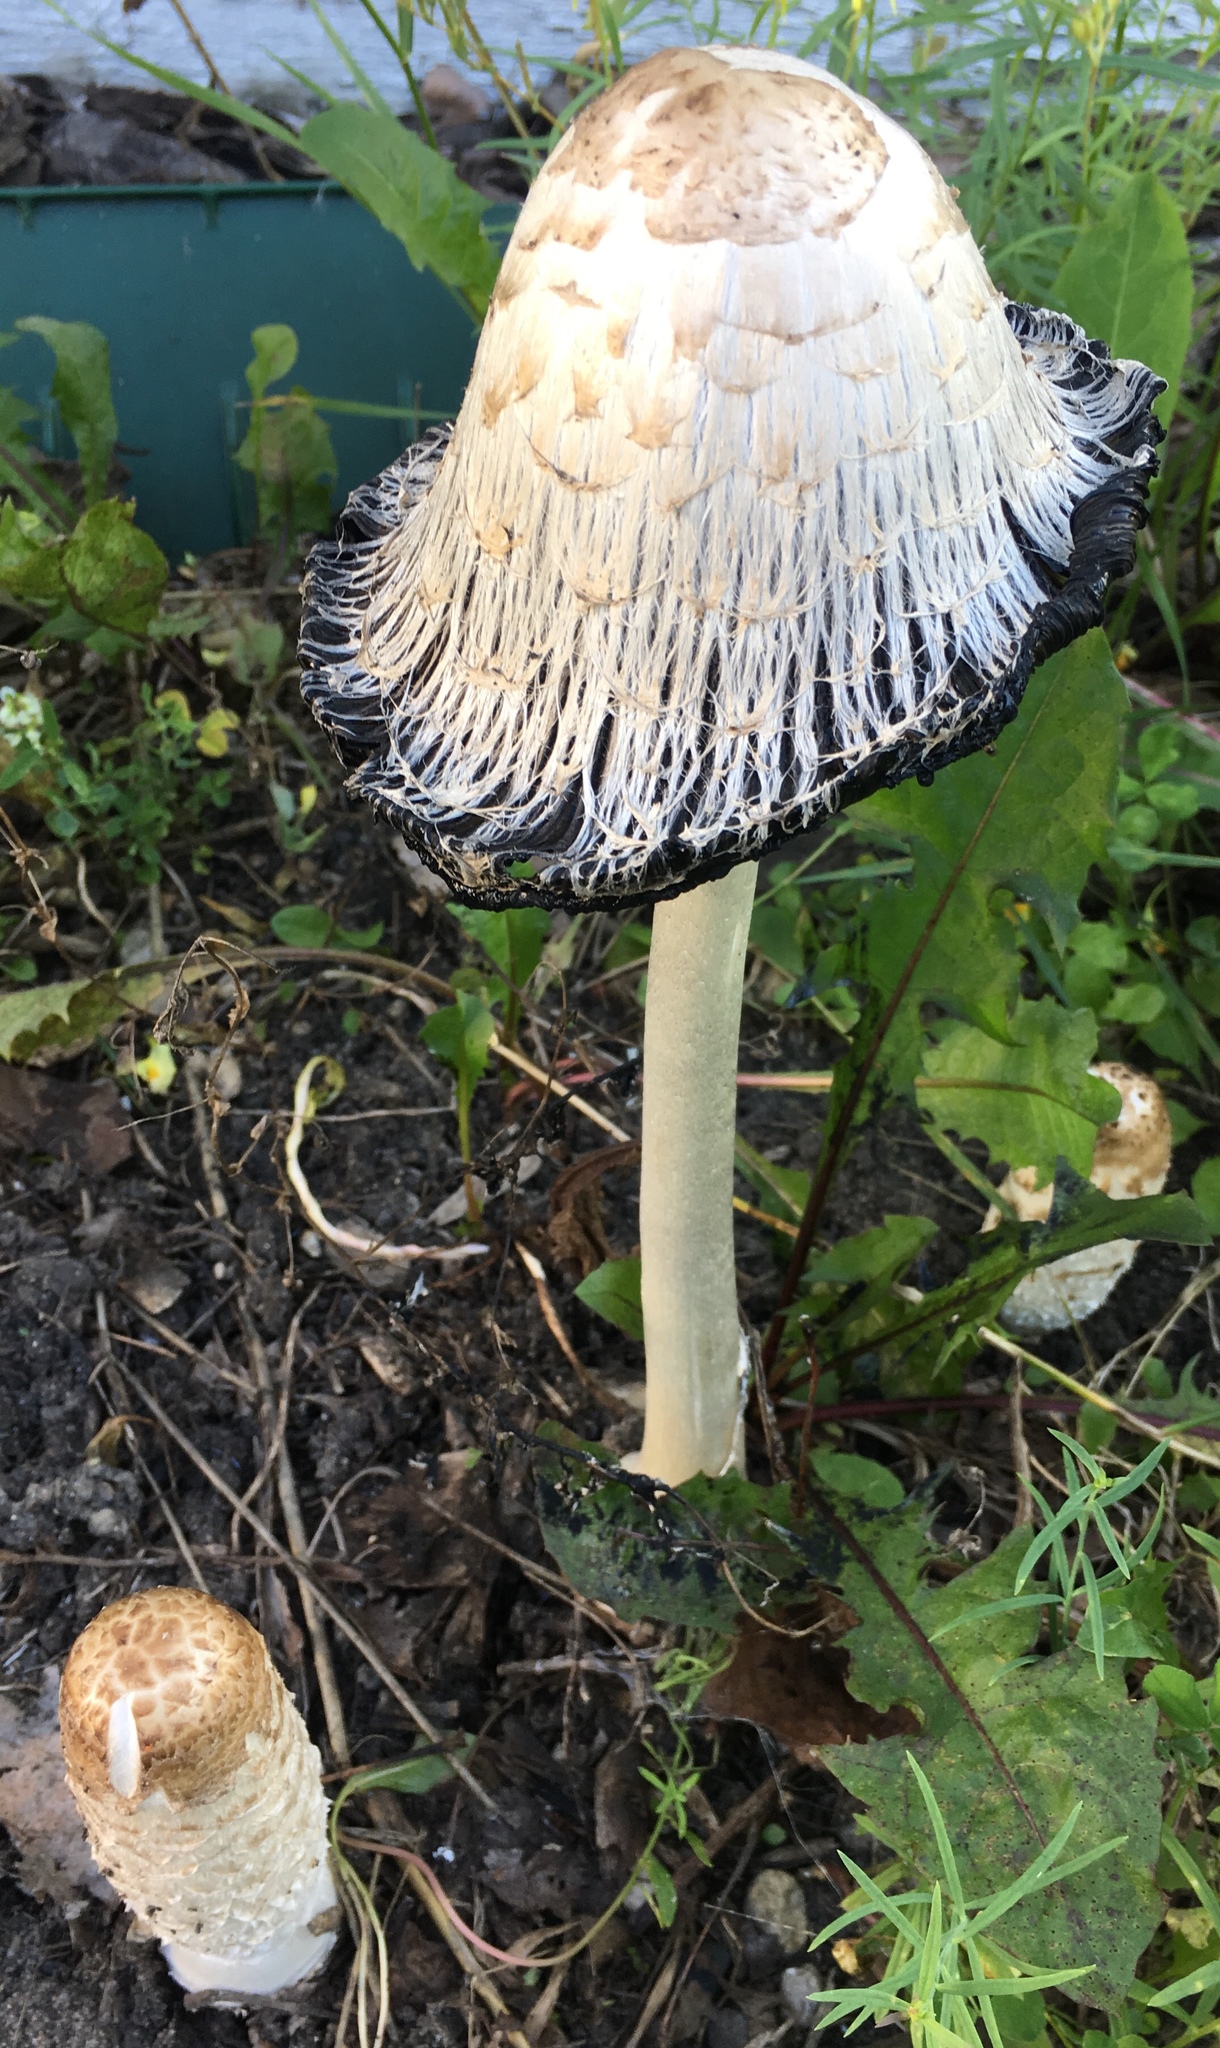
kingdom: Fungi
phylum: Basidiomycota
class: Agaricomycetes
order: Agaricales
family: Agaricaceae
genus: Coprinus
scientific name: Coprinus comatus
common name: Lawyer's wig
